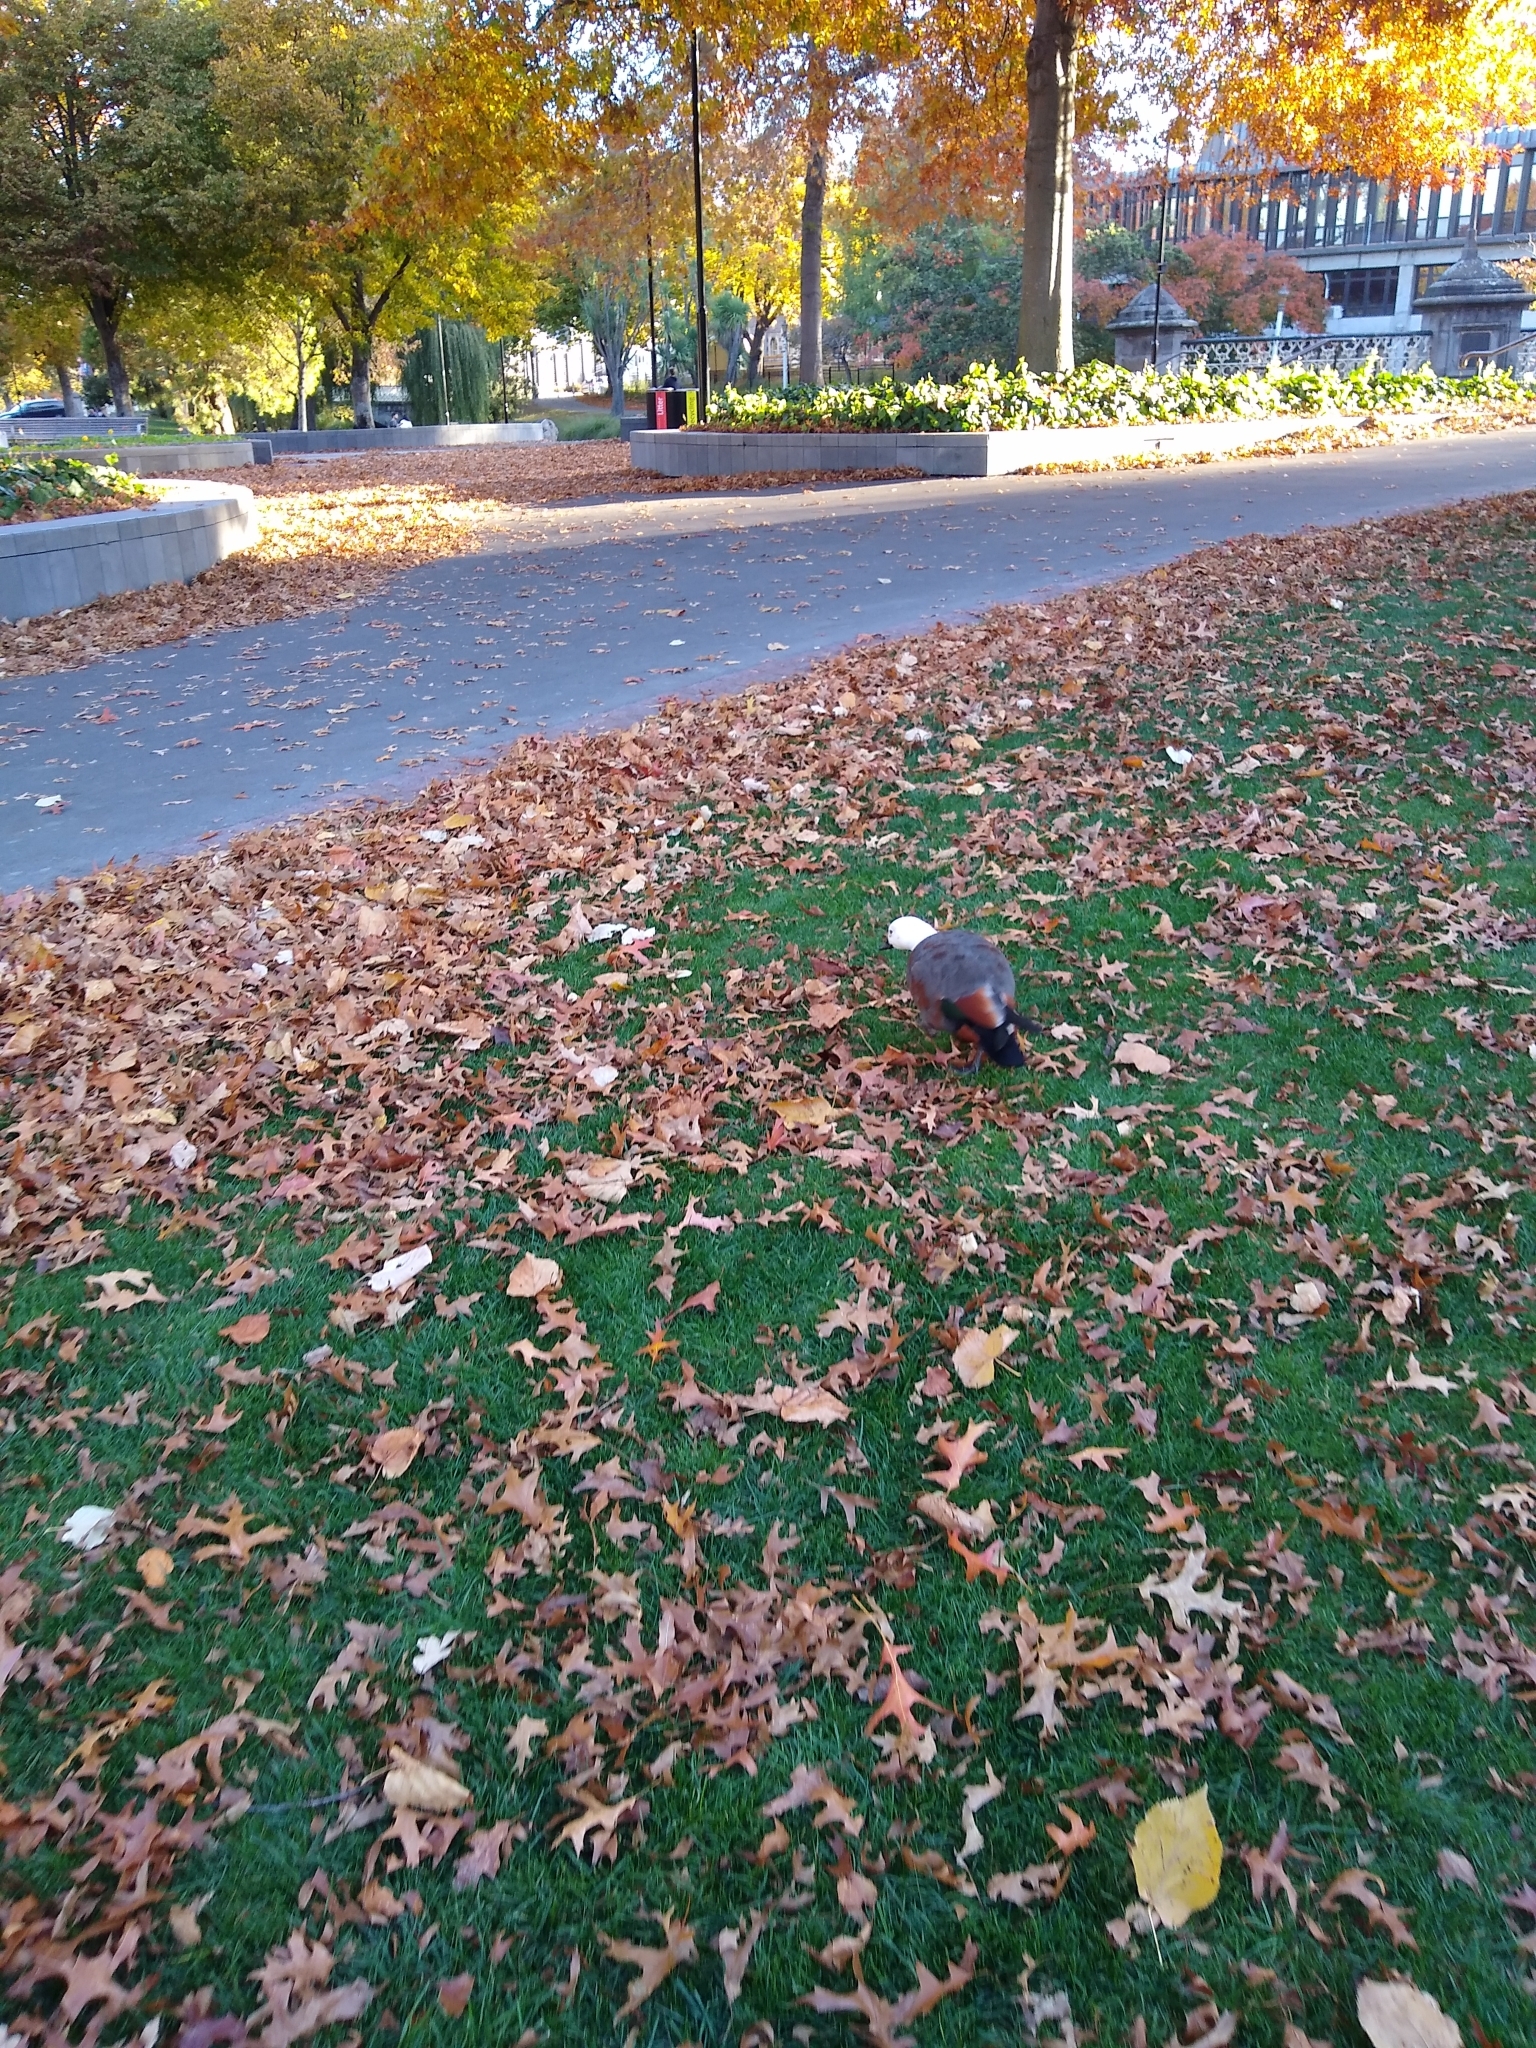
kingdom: Animalia
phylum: Chordata
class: Aves
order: Anseriformes
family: Anatidae
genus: Tadorna
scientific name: Tadorna variegata
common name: Paradise shelduck
